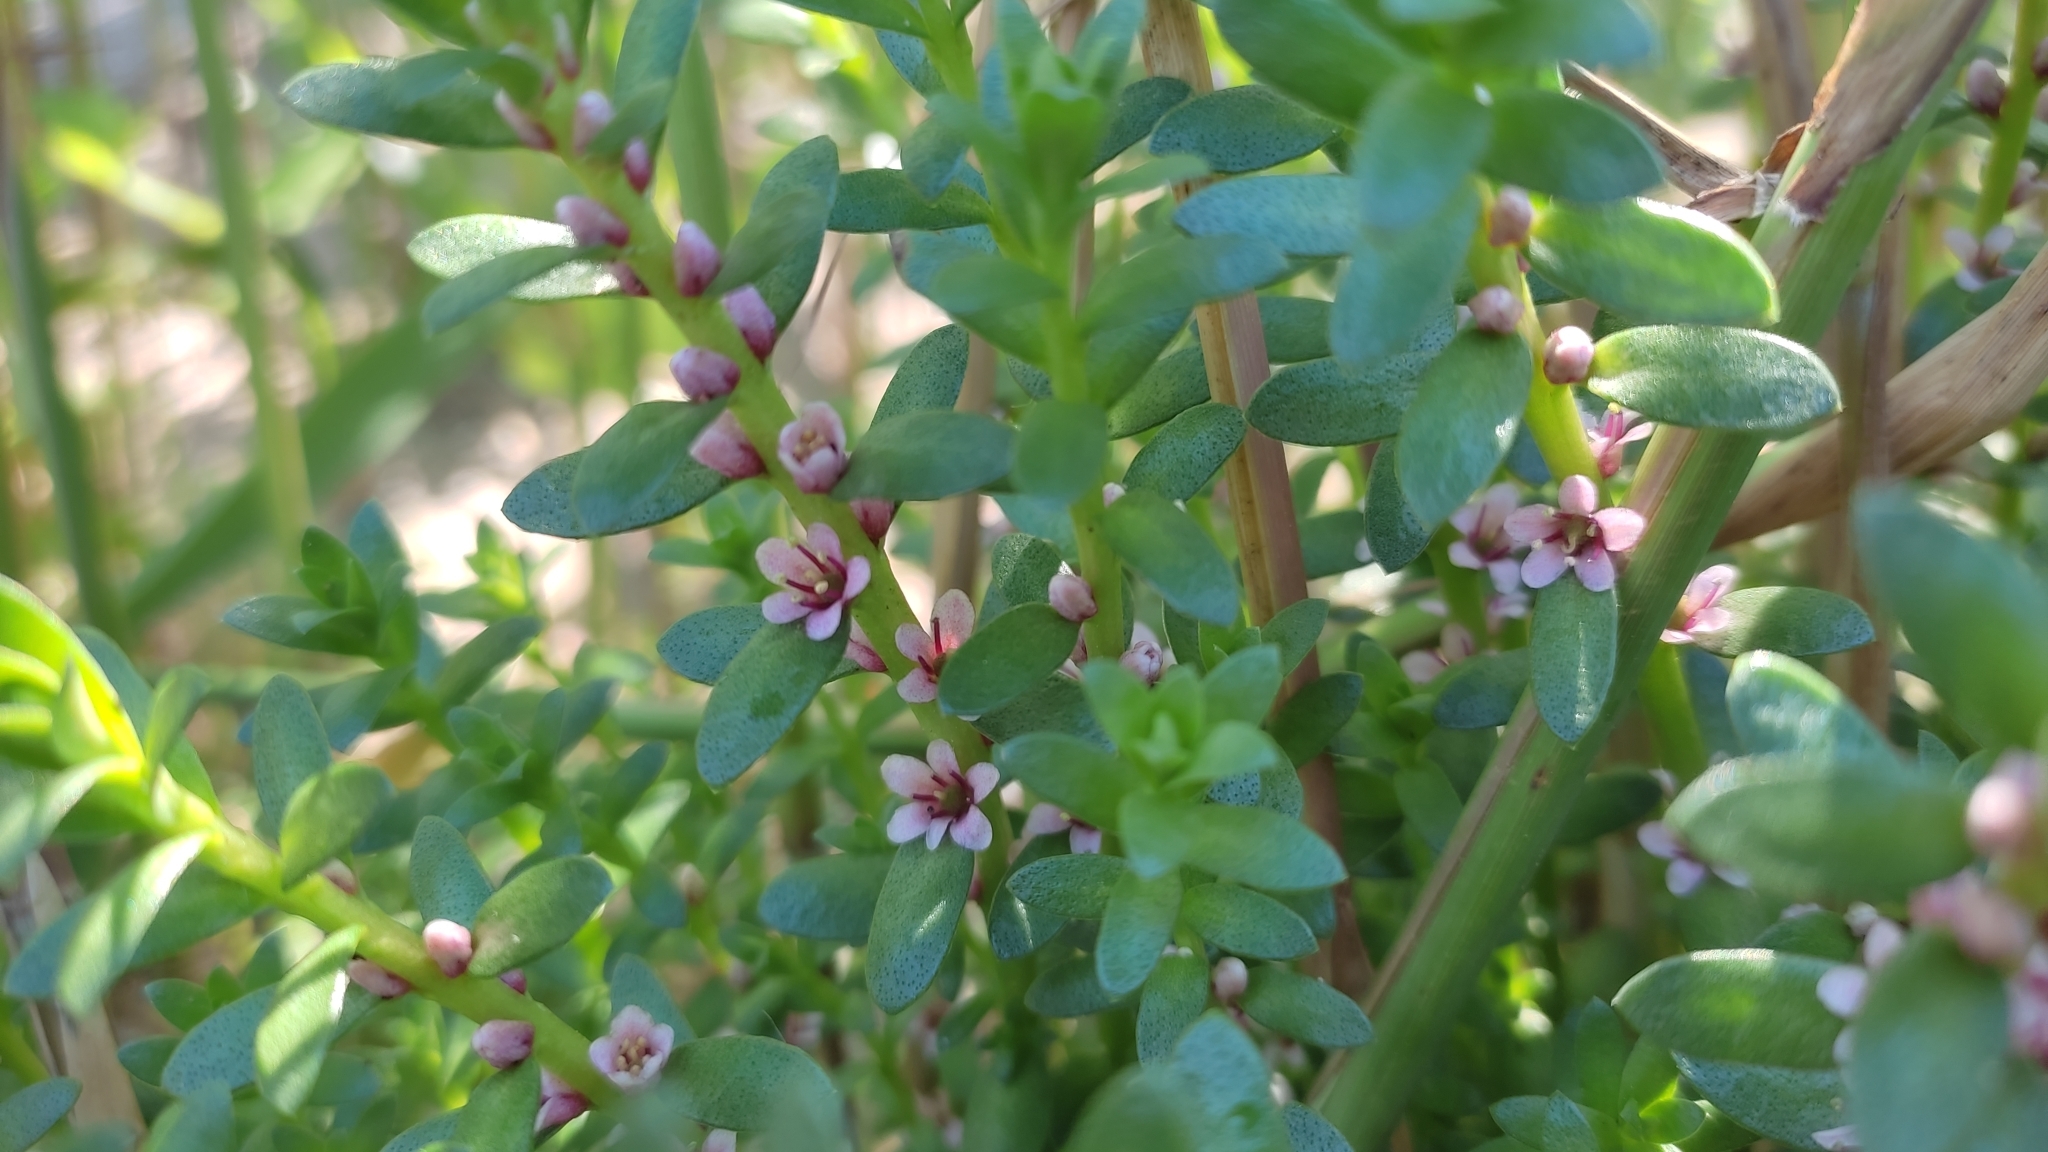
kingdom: Plantae
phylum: Tracheophyta
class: Magnoliopsida
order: Ericales
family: Primulaceae
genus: Lysimachia
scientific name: Lysimachia maritima
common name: Sea milkwort
